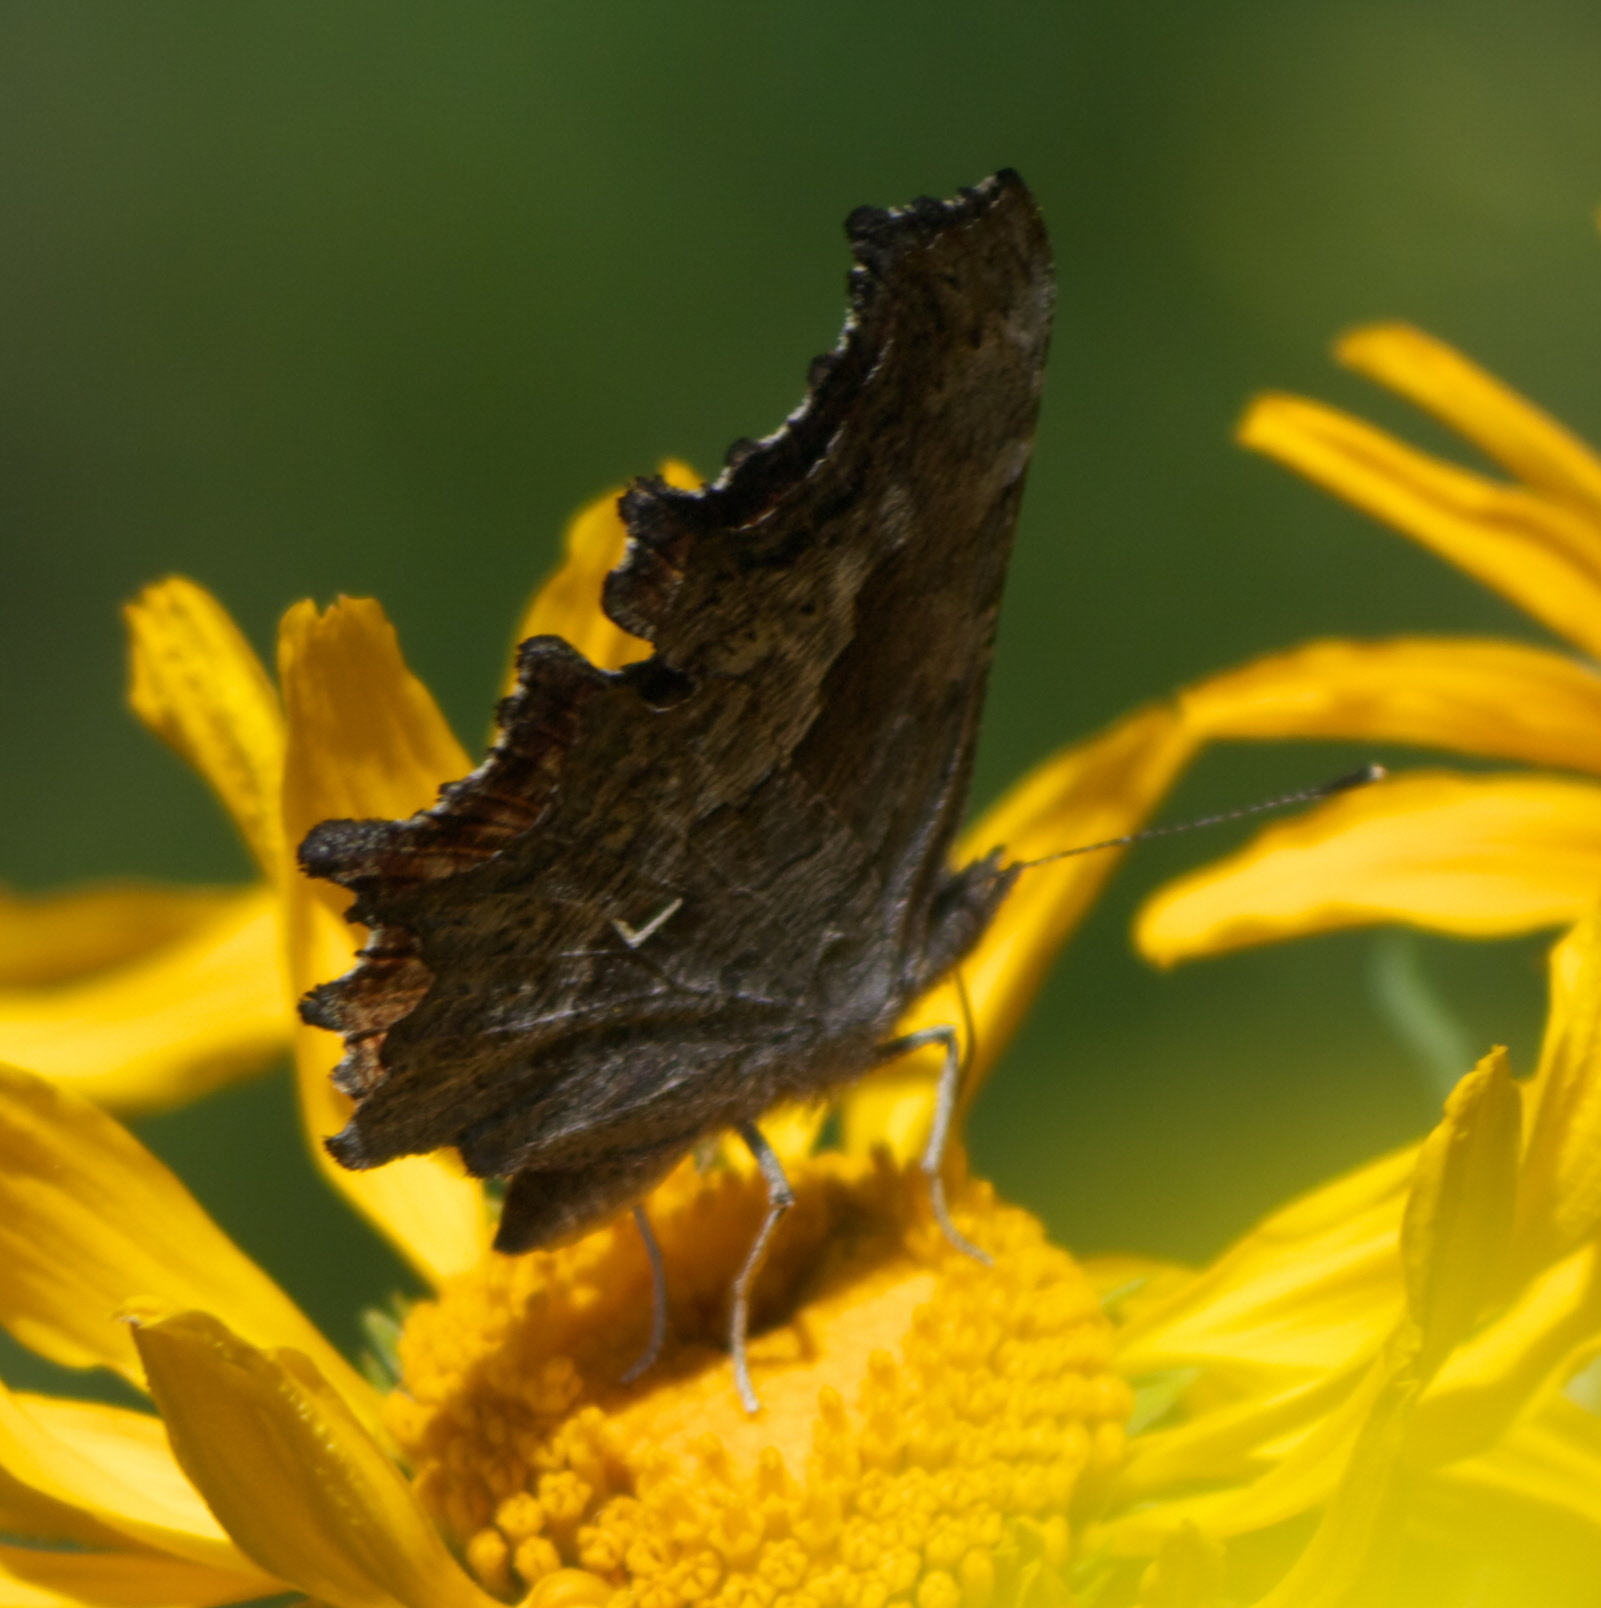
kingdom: Animalia
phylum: Arthropoda
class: Insecta
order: Lepidoptera
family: Nymphalidae
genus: Polygonia
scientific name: Polygonia gracilis
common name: Hoary comma
